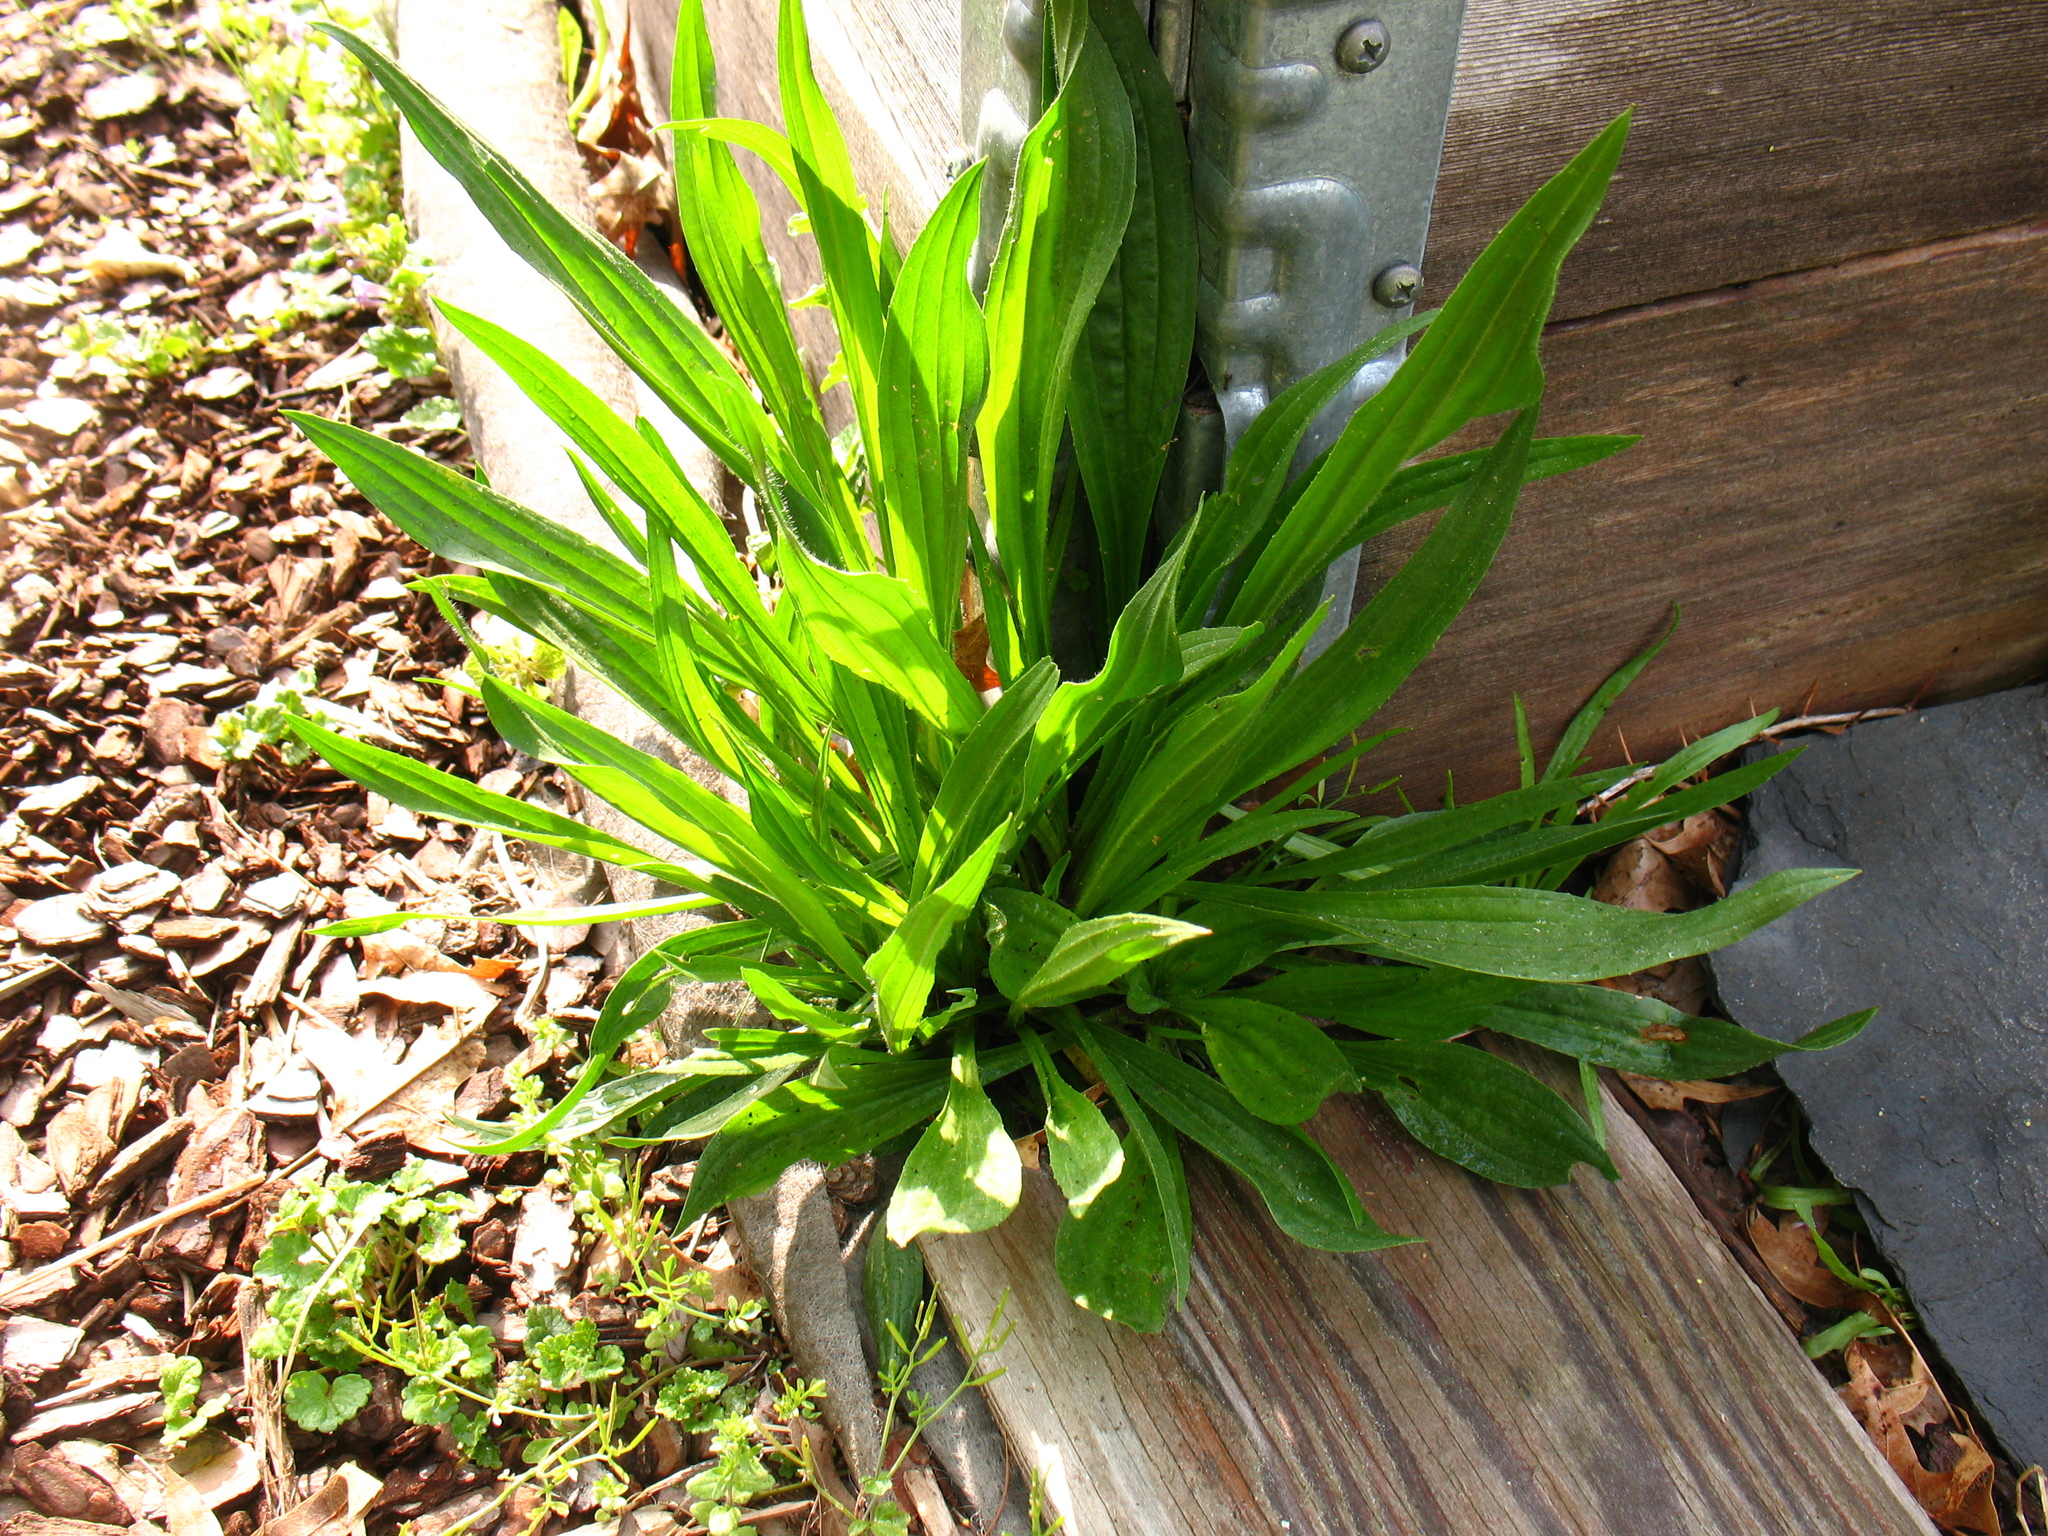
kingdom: Plantae
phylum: Tracheophyta
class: Magnoliopsida
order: Lamiales
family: Plantaginaceae
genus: Plantago
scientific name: Plantago lanceolata
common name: Ribwort plantain
